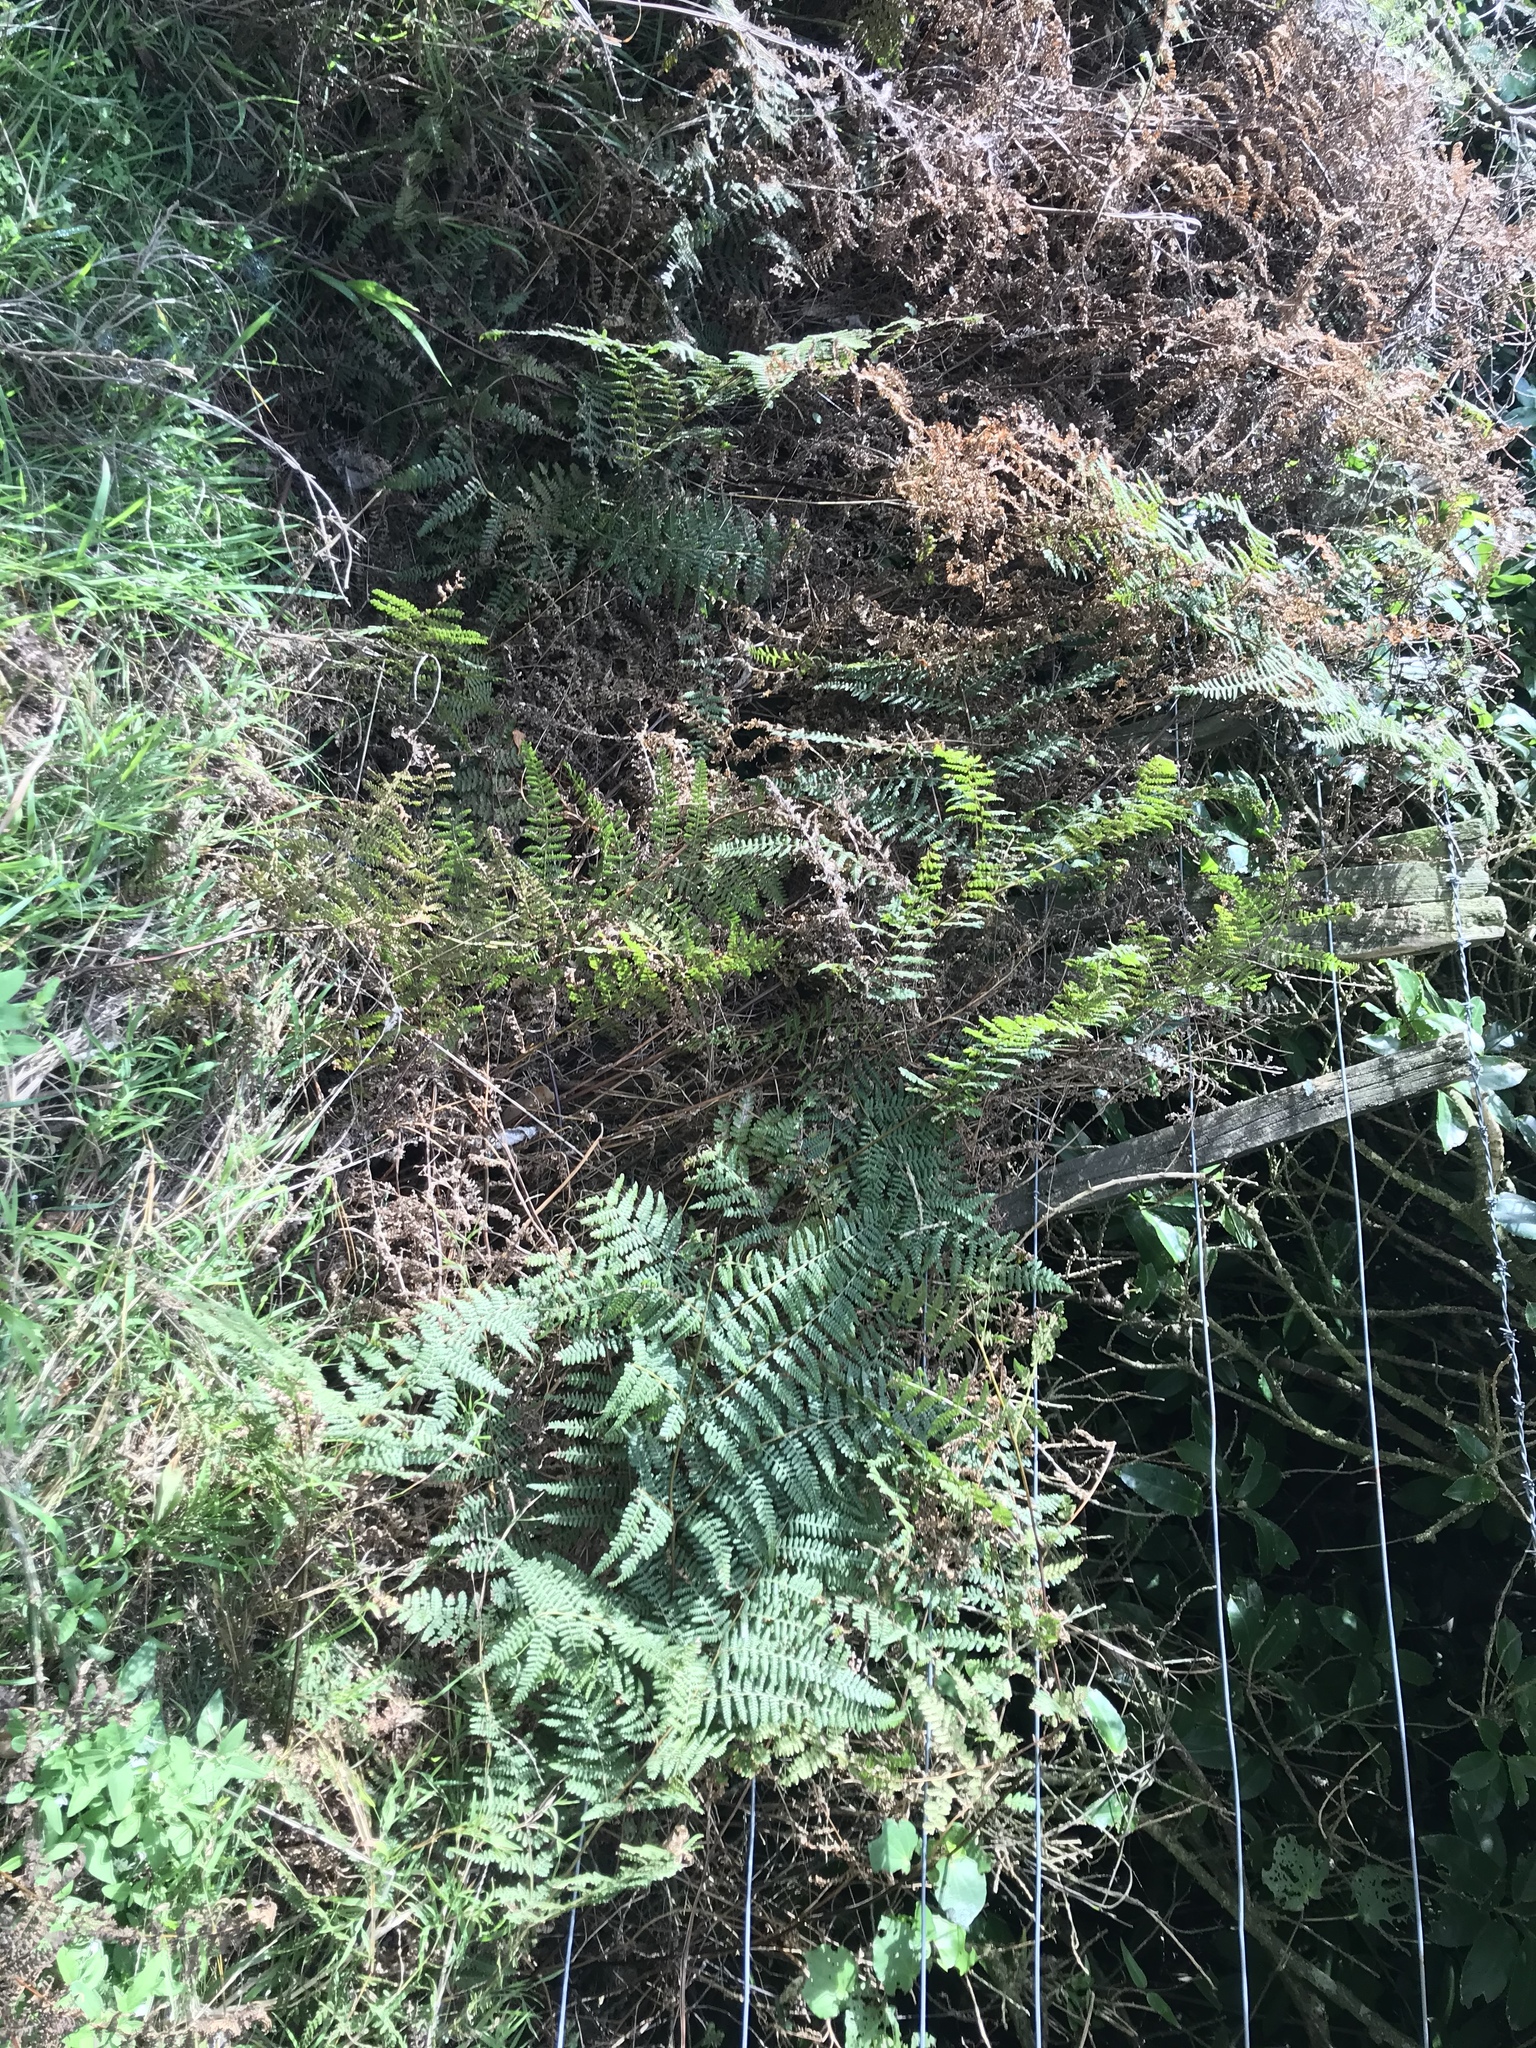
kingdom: Plantae
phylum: Tracheophyta
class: Polypodiopsida
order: Polypodiales
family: Dennstaedtiaceae
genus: Hypolepis
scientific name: Hypolepis ambigua
